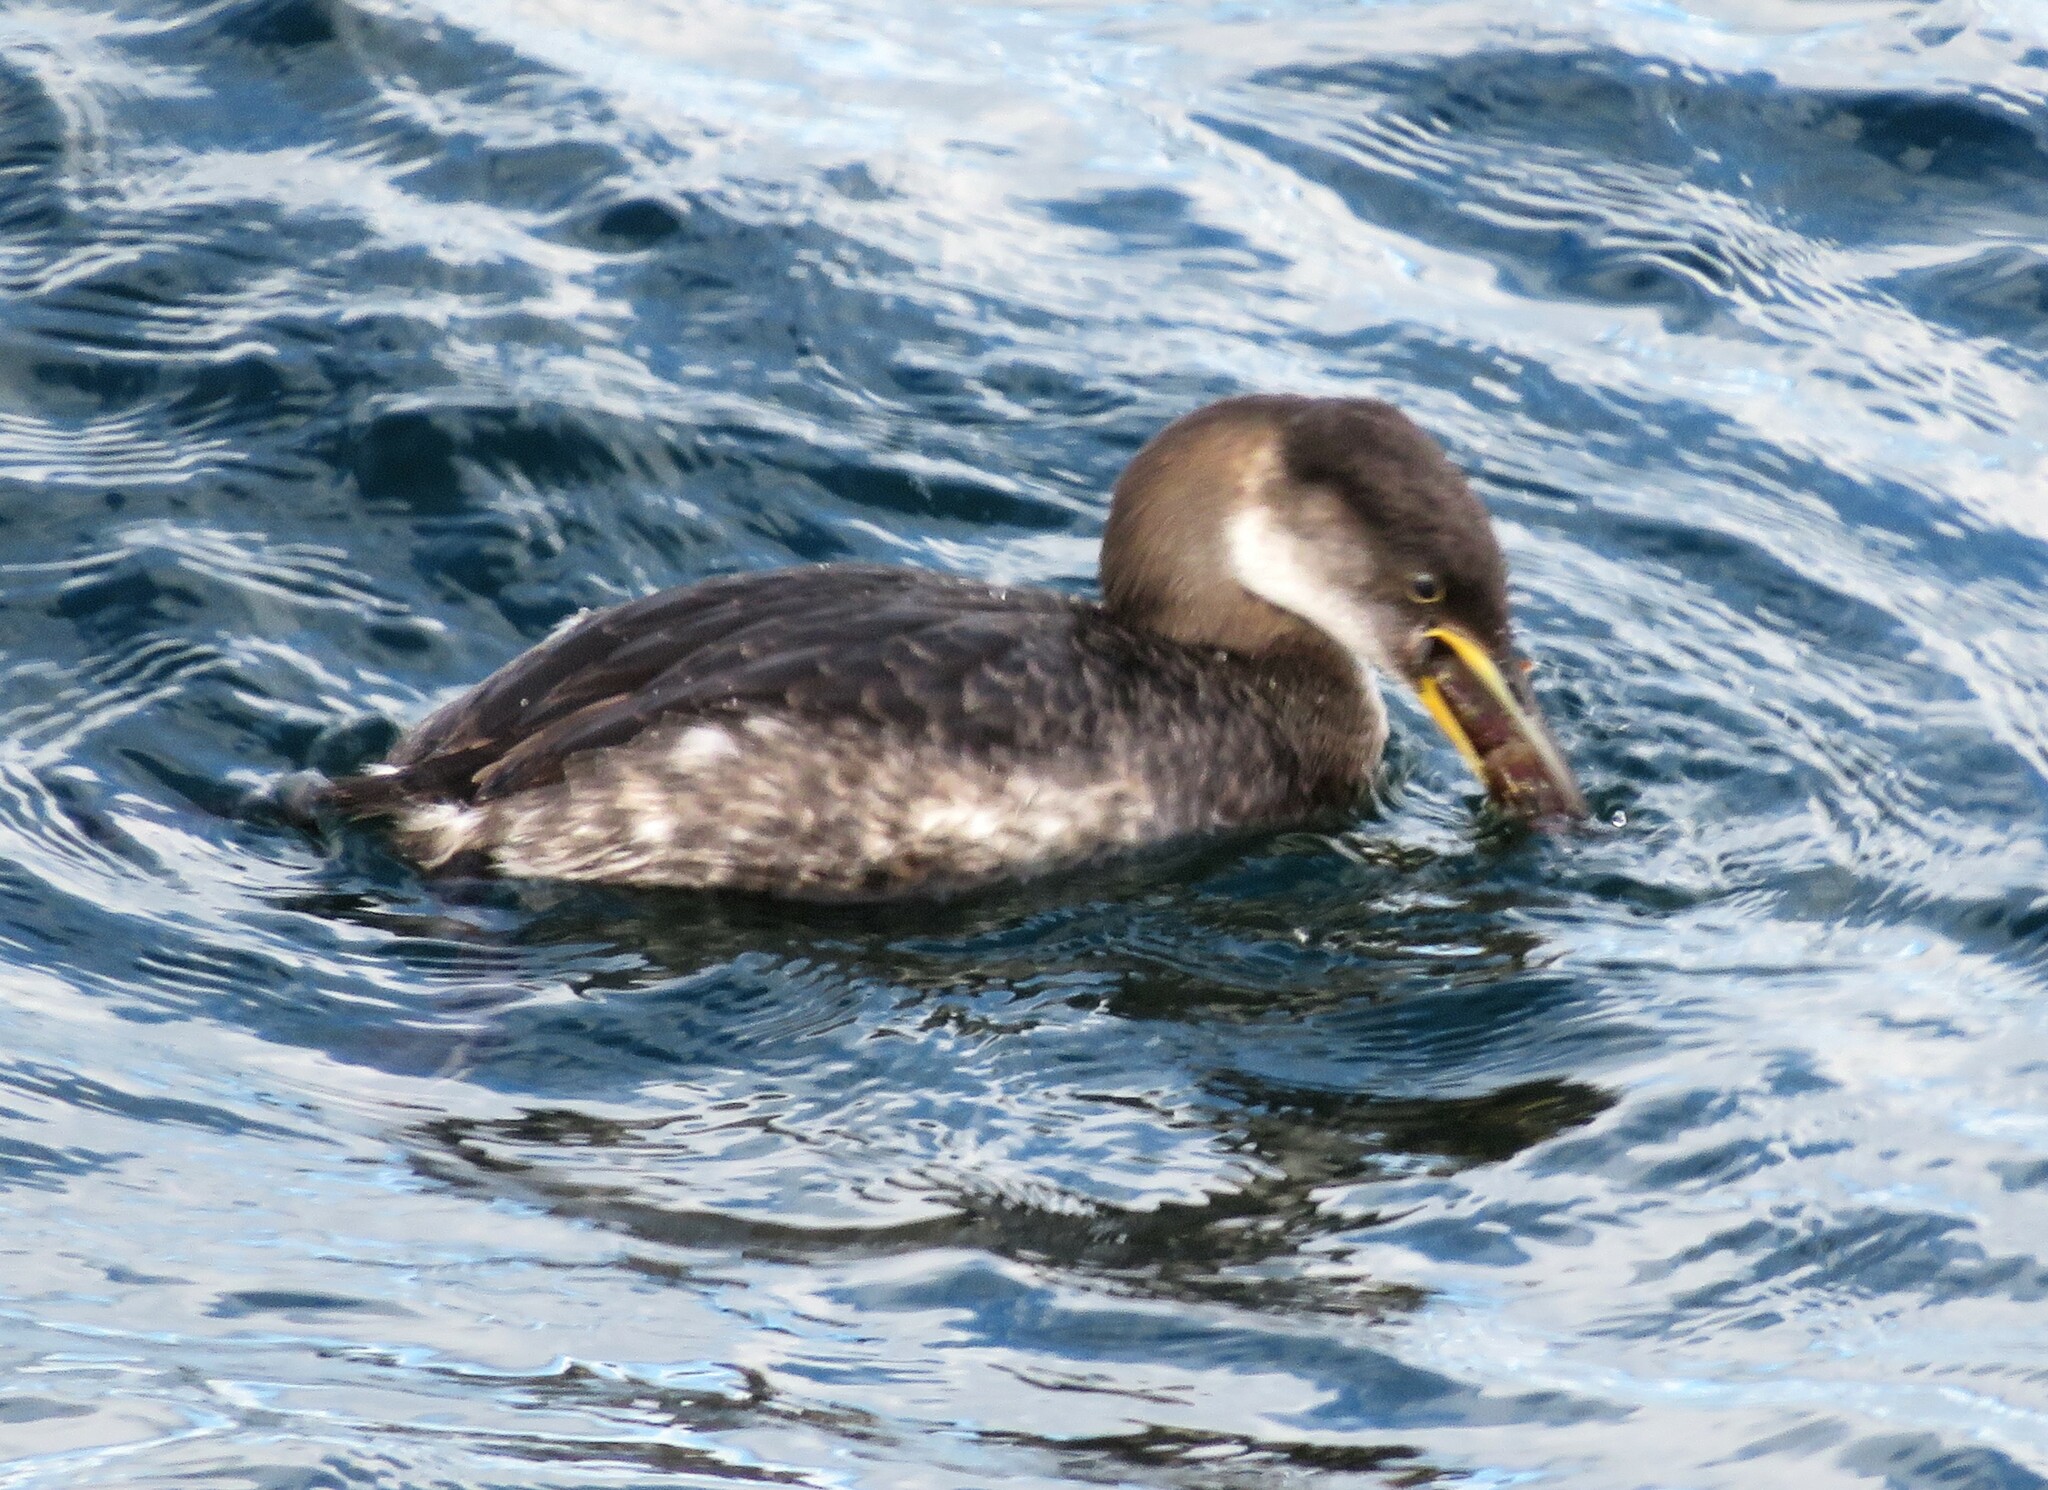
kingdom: Animalia
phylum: Chordata
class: Aves
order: Podicipediformes
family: Podicipedidae
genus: Podiceps
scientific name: Podiceps grisegena
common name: Red-necked grebe
